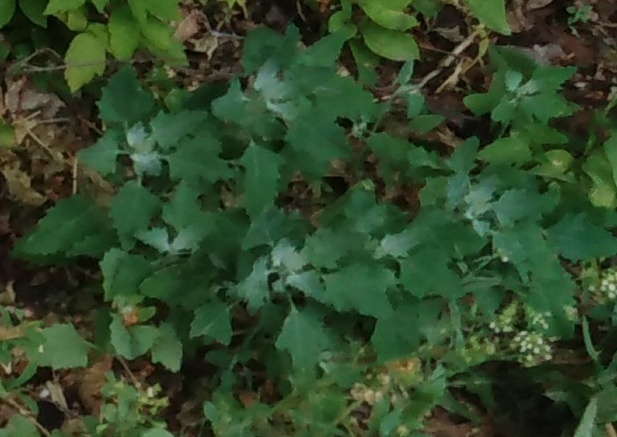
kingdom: Plantae
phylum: Tracheophyta
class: Magnoliopsida
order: Caryophyllales
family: Amaranthaceae
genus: Chenopodium
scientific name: Chenopodium album
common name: Fat-hen
